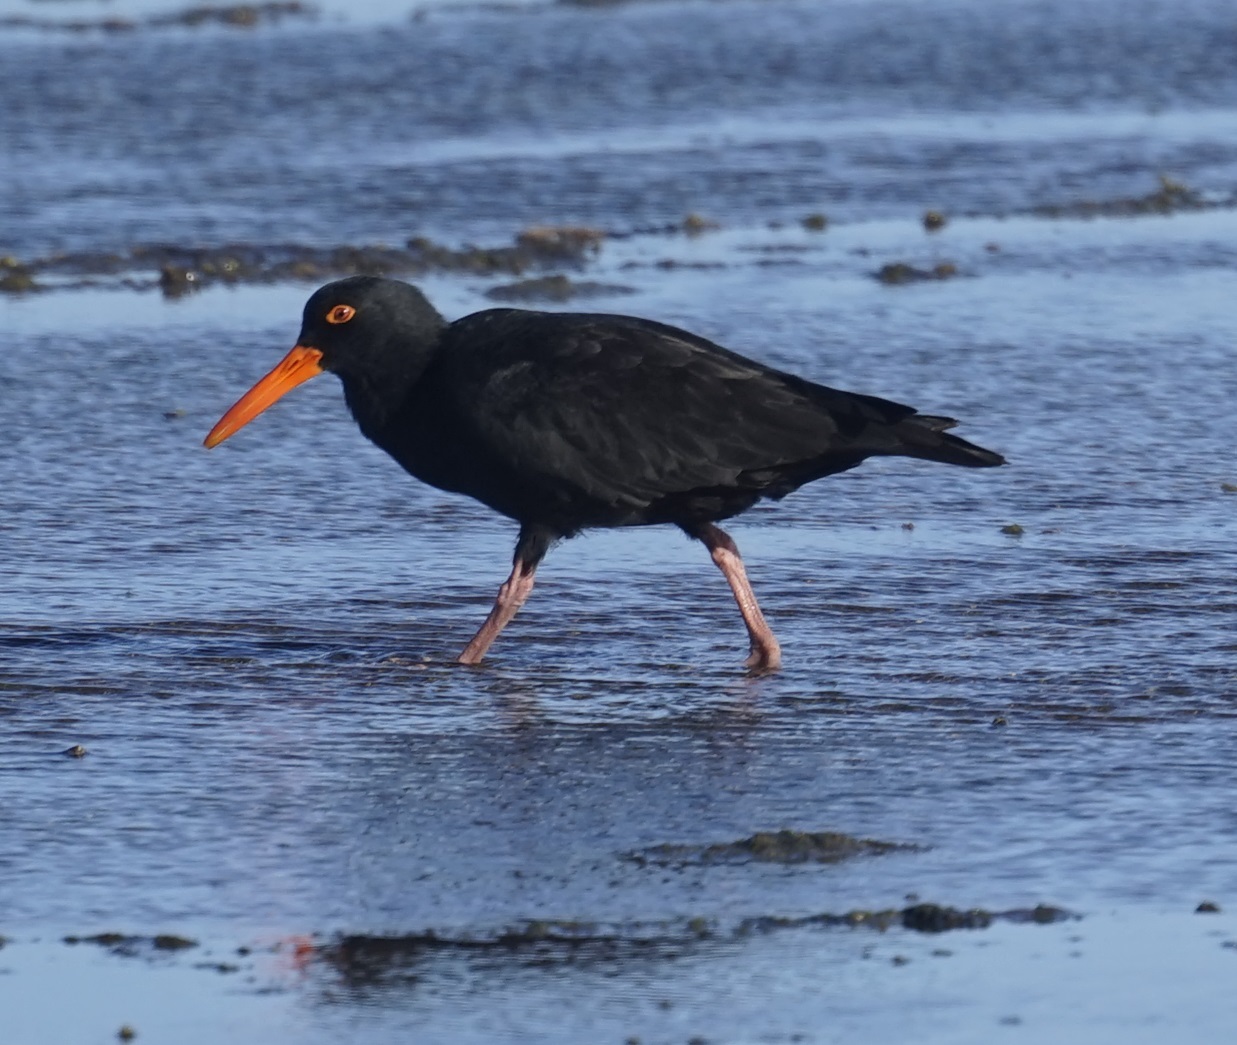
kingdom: Animalia
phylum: Chordata
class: Aves
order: Charadriiformes
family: Haematopodidae
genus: Haematopus
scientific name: Haematopus fuliginosus
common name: Sooty oystercatcher
